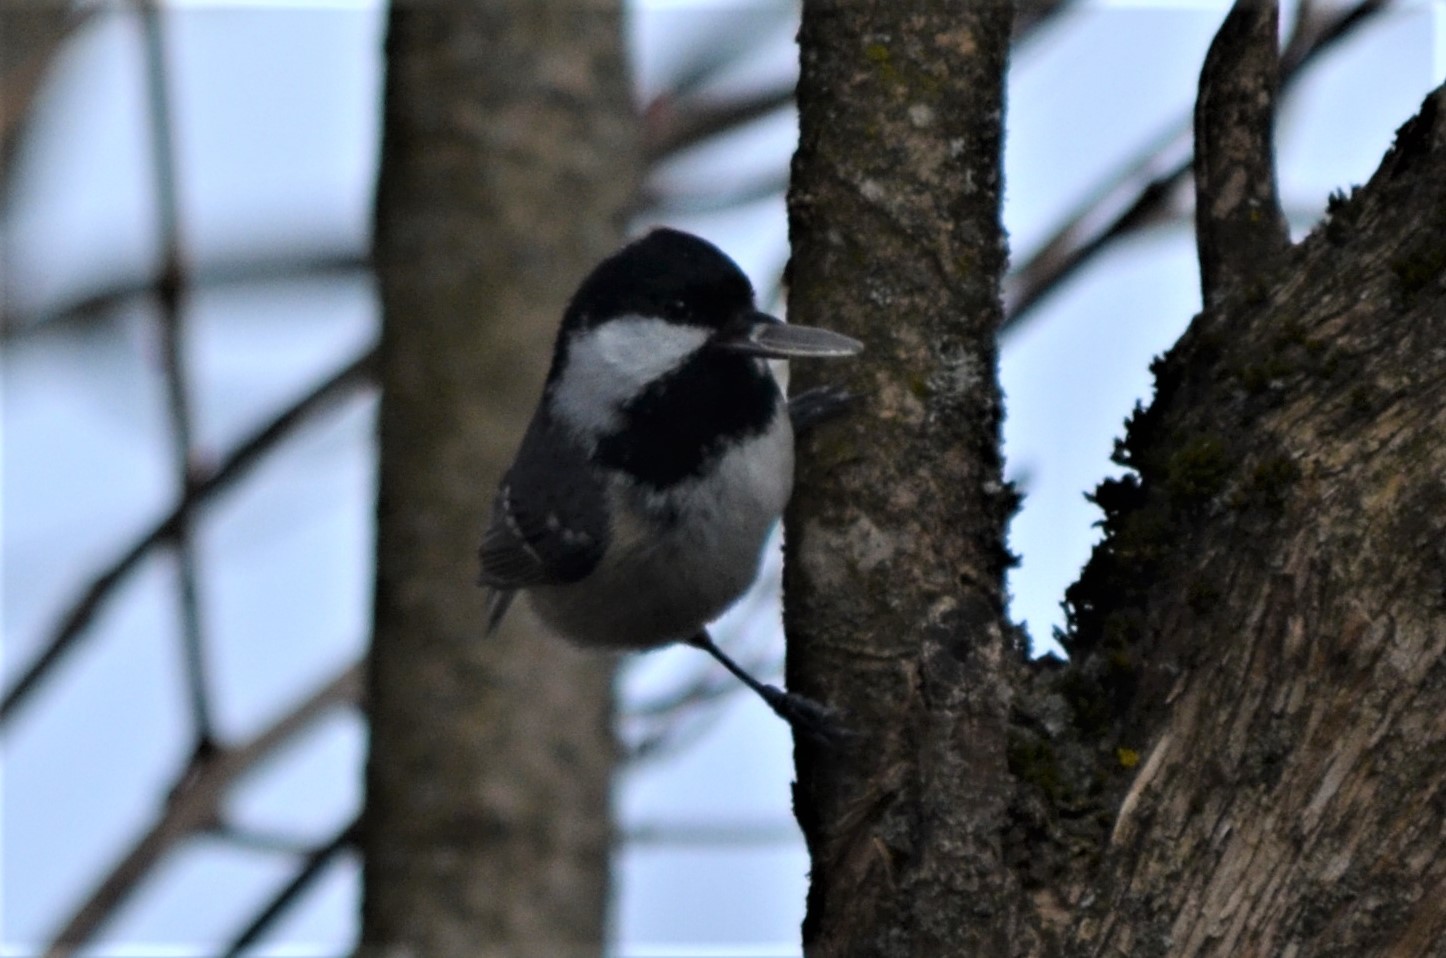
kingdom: Animalia
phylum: Chordata
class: Aves
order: Passeriformes
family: Paridae
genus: Periparus
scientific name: Periparus ater
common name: Coal tit
